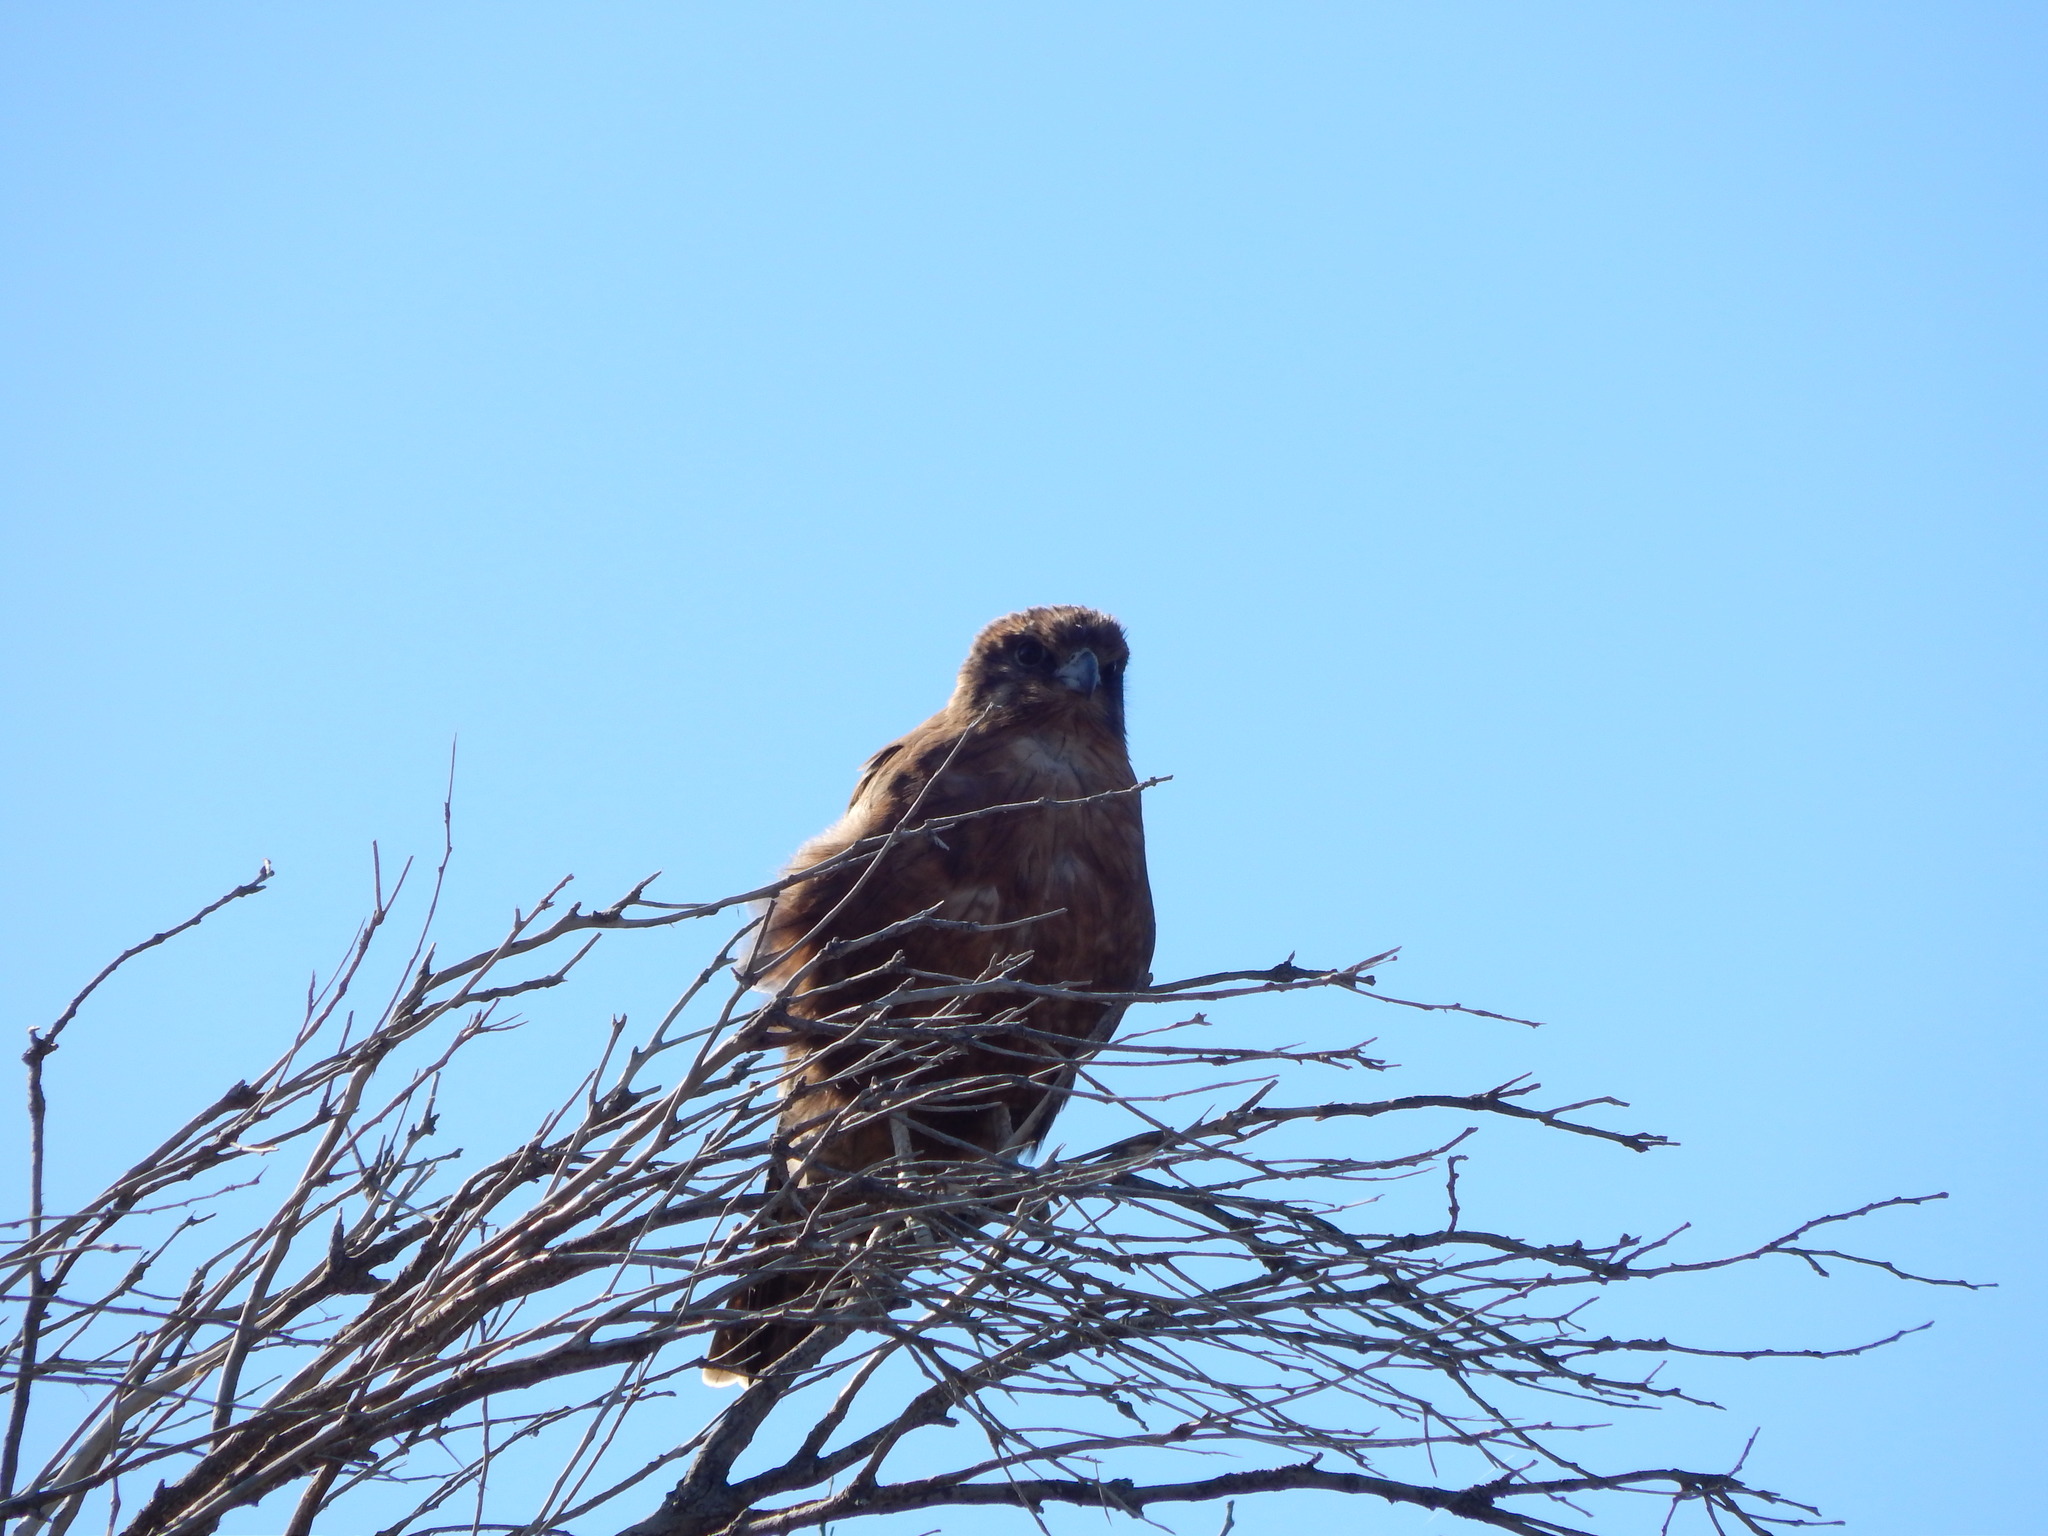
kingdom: Animalia
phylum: Chordata
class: Aves
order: Falconiformes
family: Falconidae
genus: Falco
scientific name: Falco berigora
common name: Brown falcon
